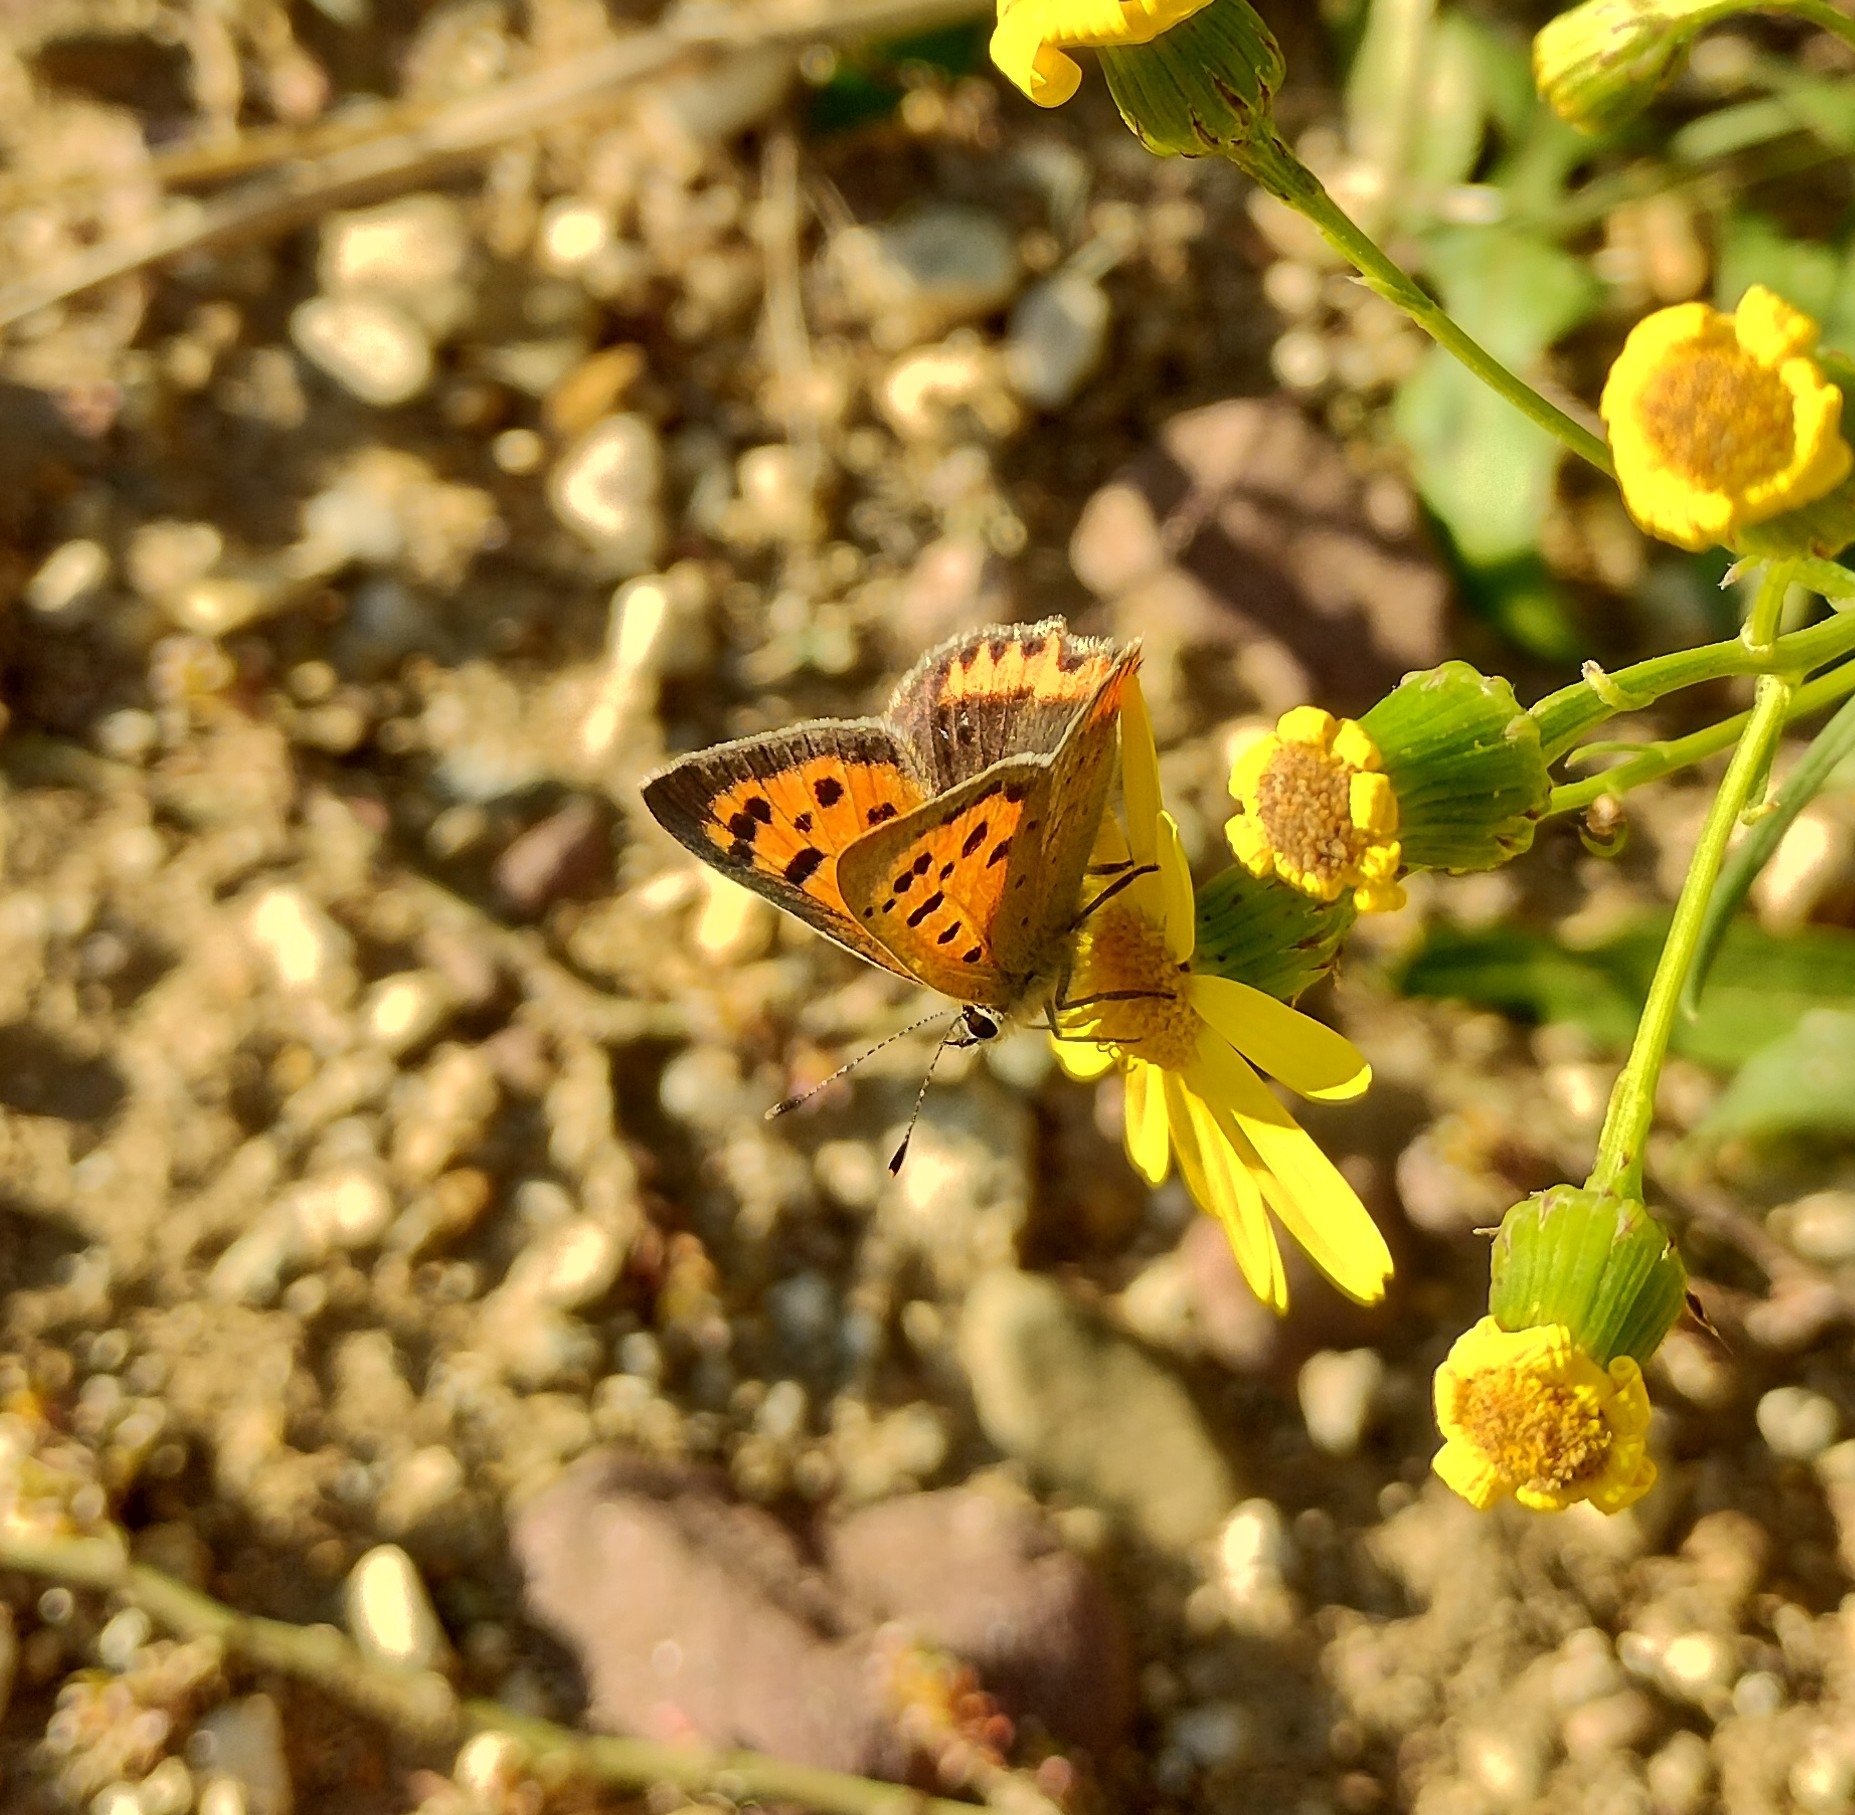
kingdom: Animalia
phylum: Arthropoda
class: Insecta
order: Lepidoptera
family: Lycaenidae
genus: Lycaena
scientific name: Lycaena phlaeas
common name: Small copper
